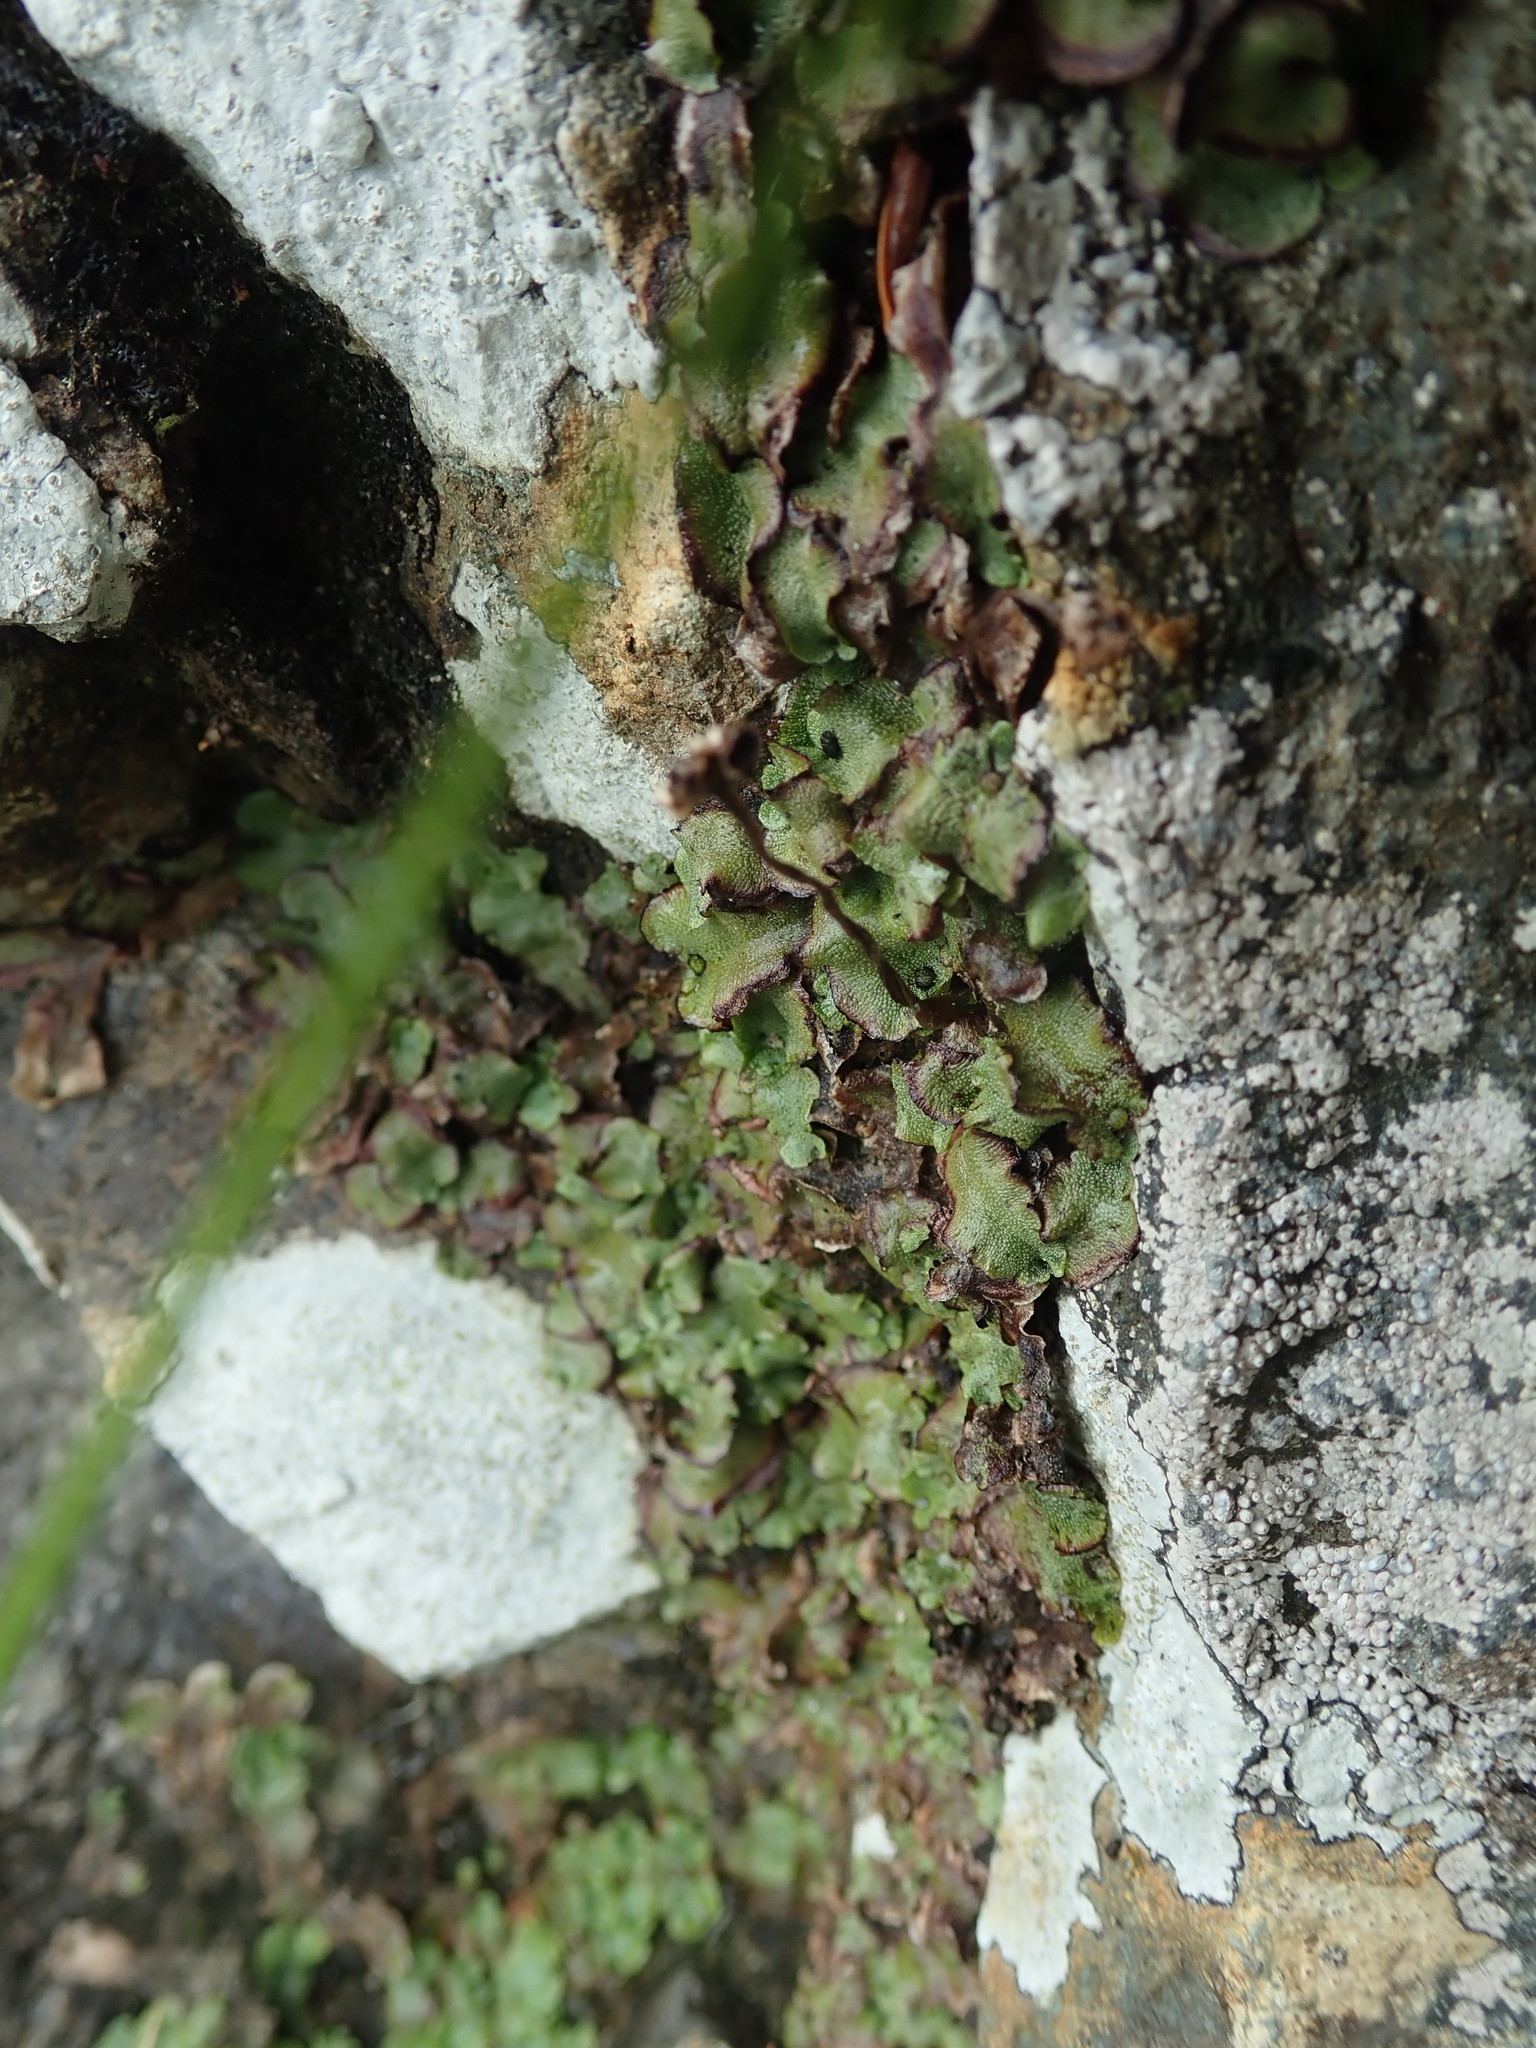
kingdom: Plantae
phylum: Marchantiophyta
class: Marchantiopsida
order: Marchantiales
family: Marchantiaceae
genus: Marchantia
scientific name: Marchantia quadrata
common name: Narrow mushroom-headed liverwort
